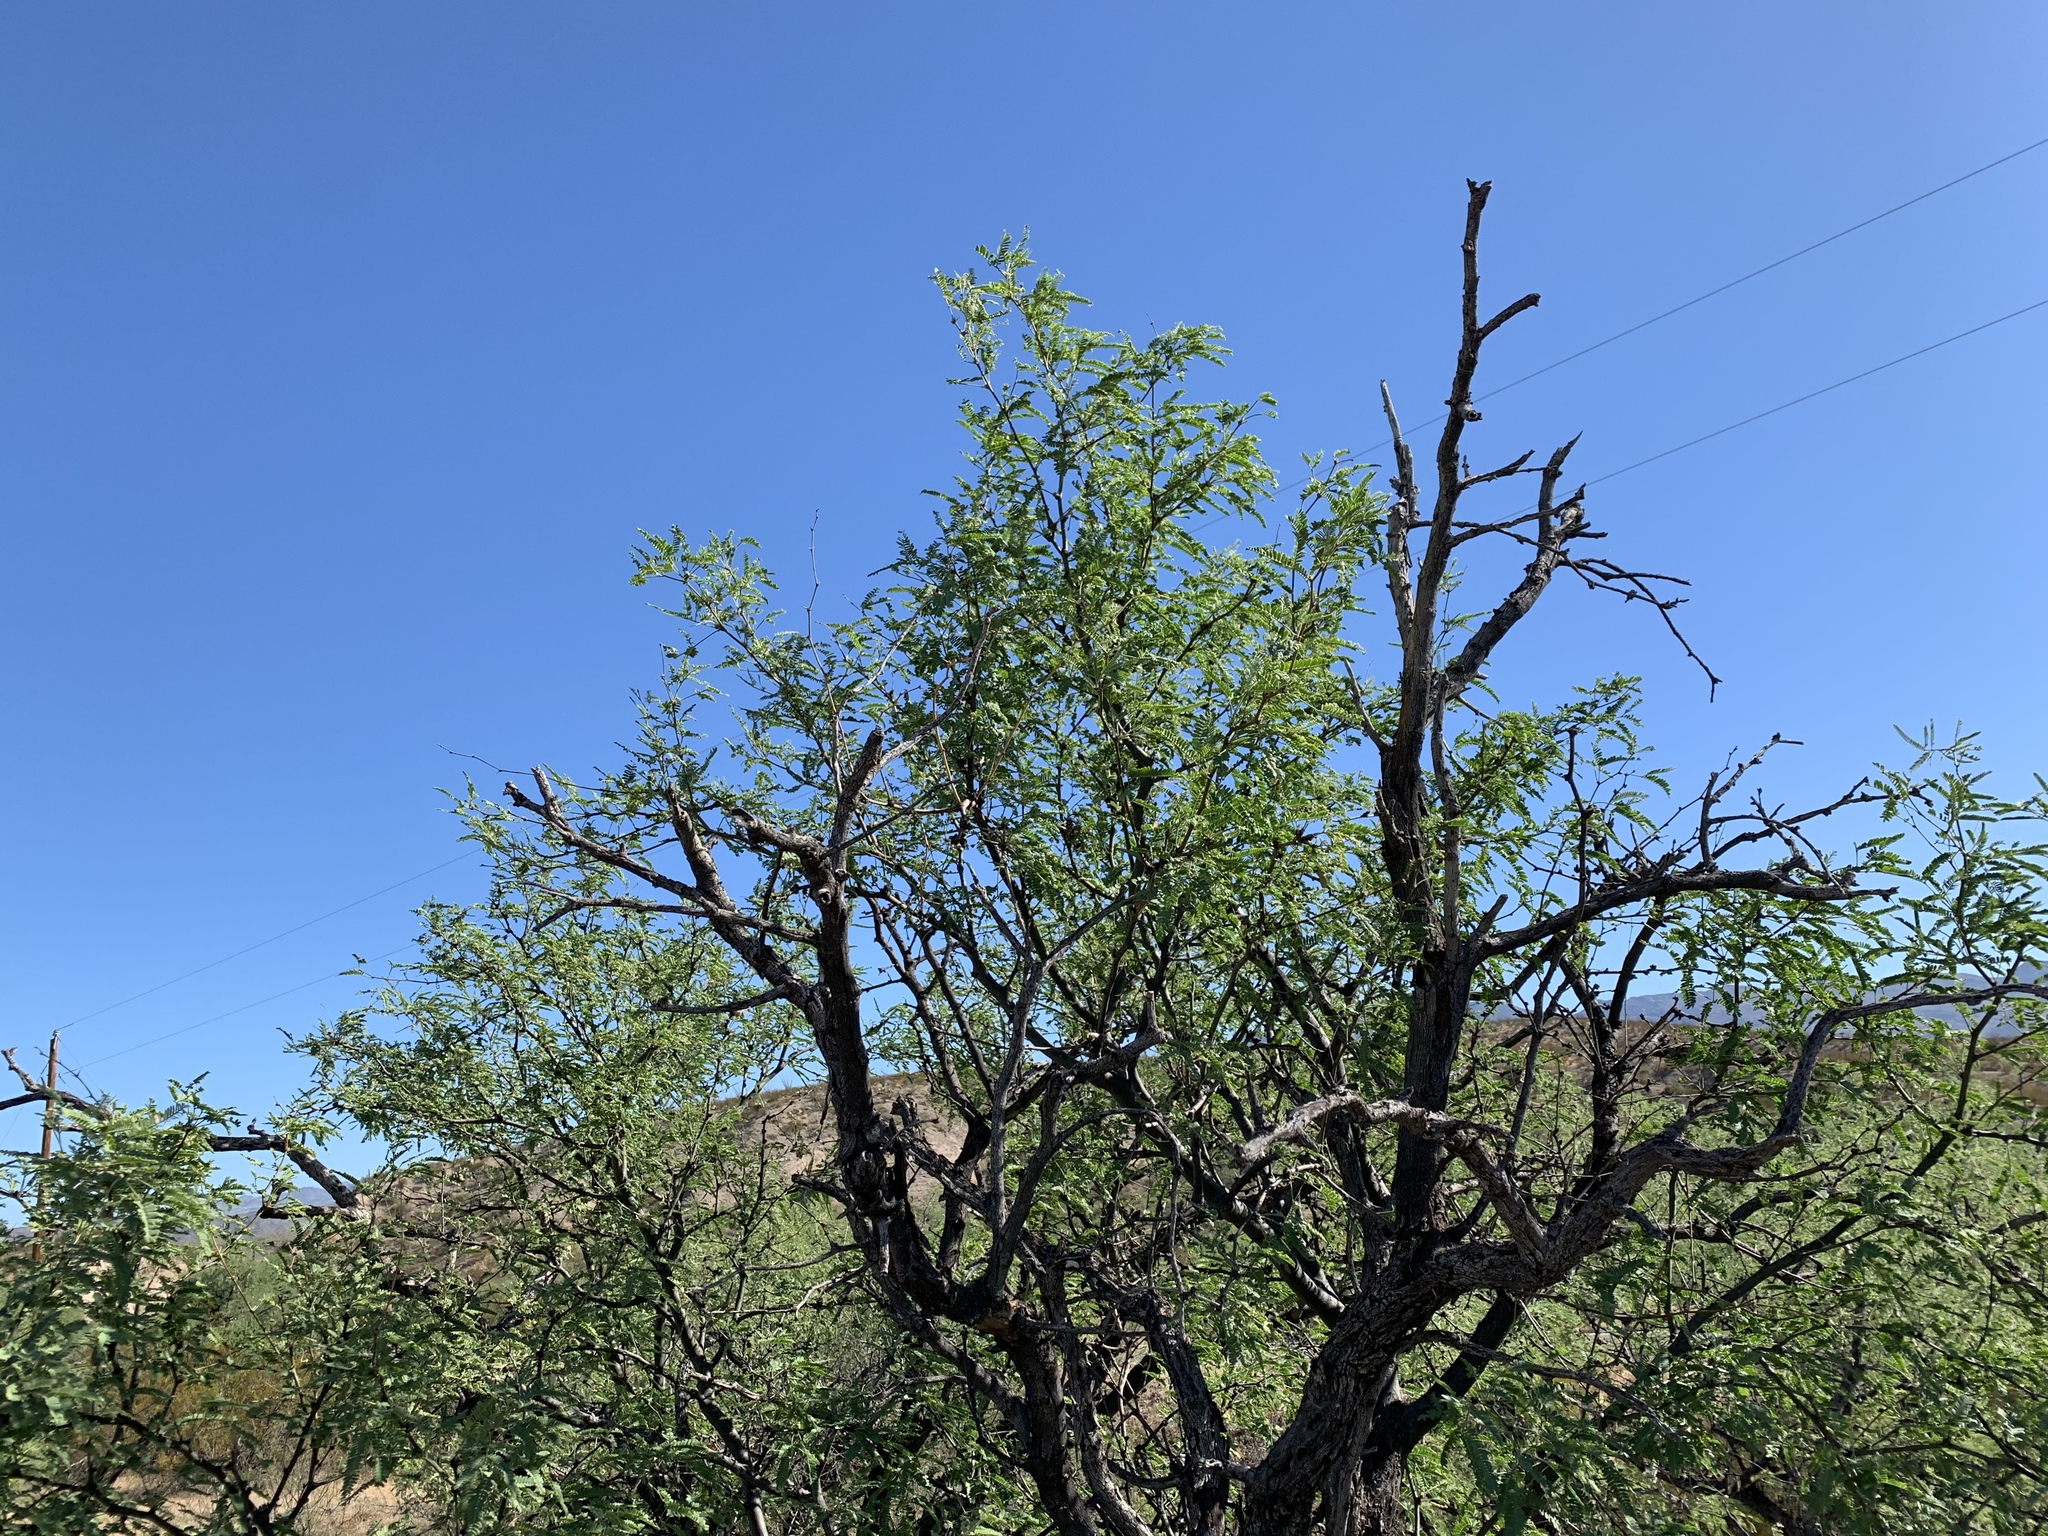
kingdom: Plantae
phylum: Tracheophyta
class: Magnoliopsida
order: Fabales
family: Fabaceae
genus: Prosopis
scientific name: Prosopis velutina
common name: Velvet mesquite
